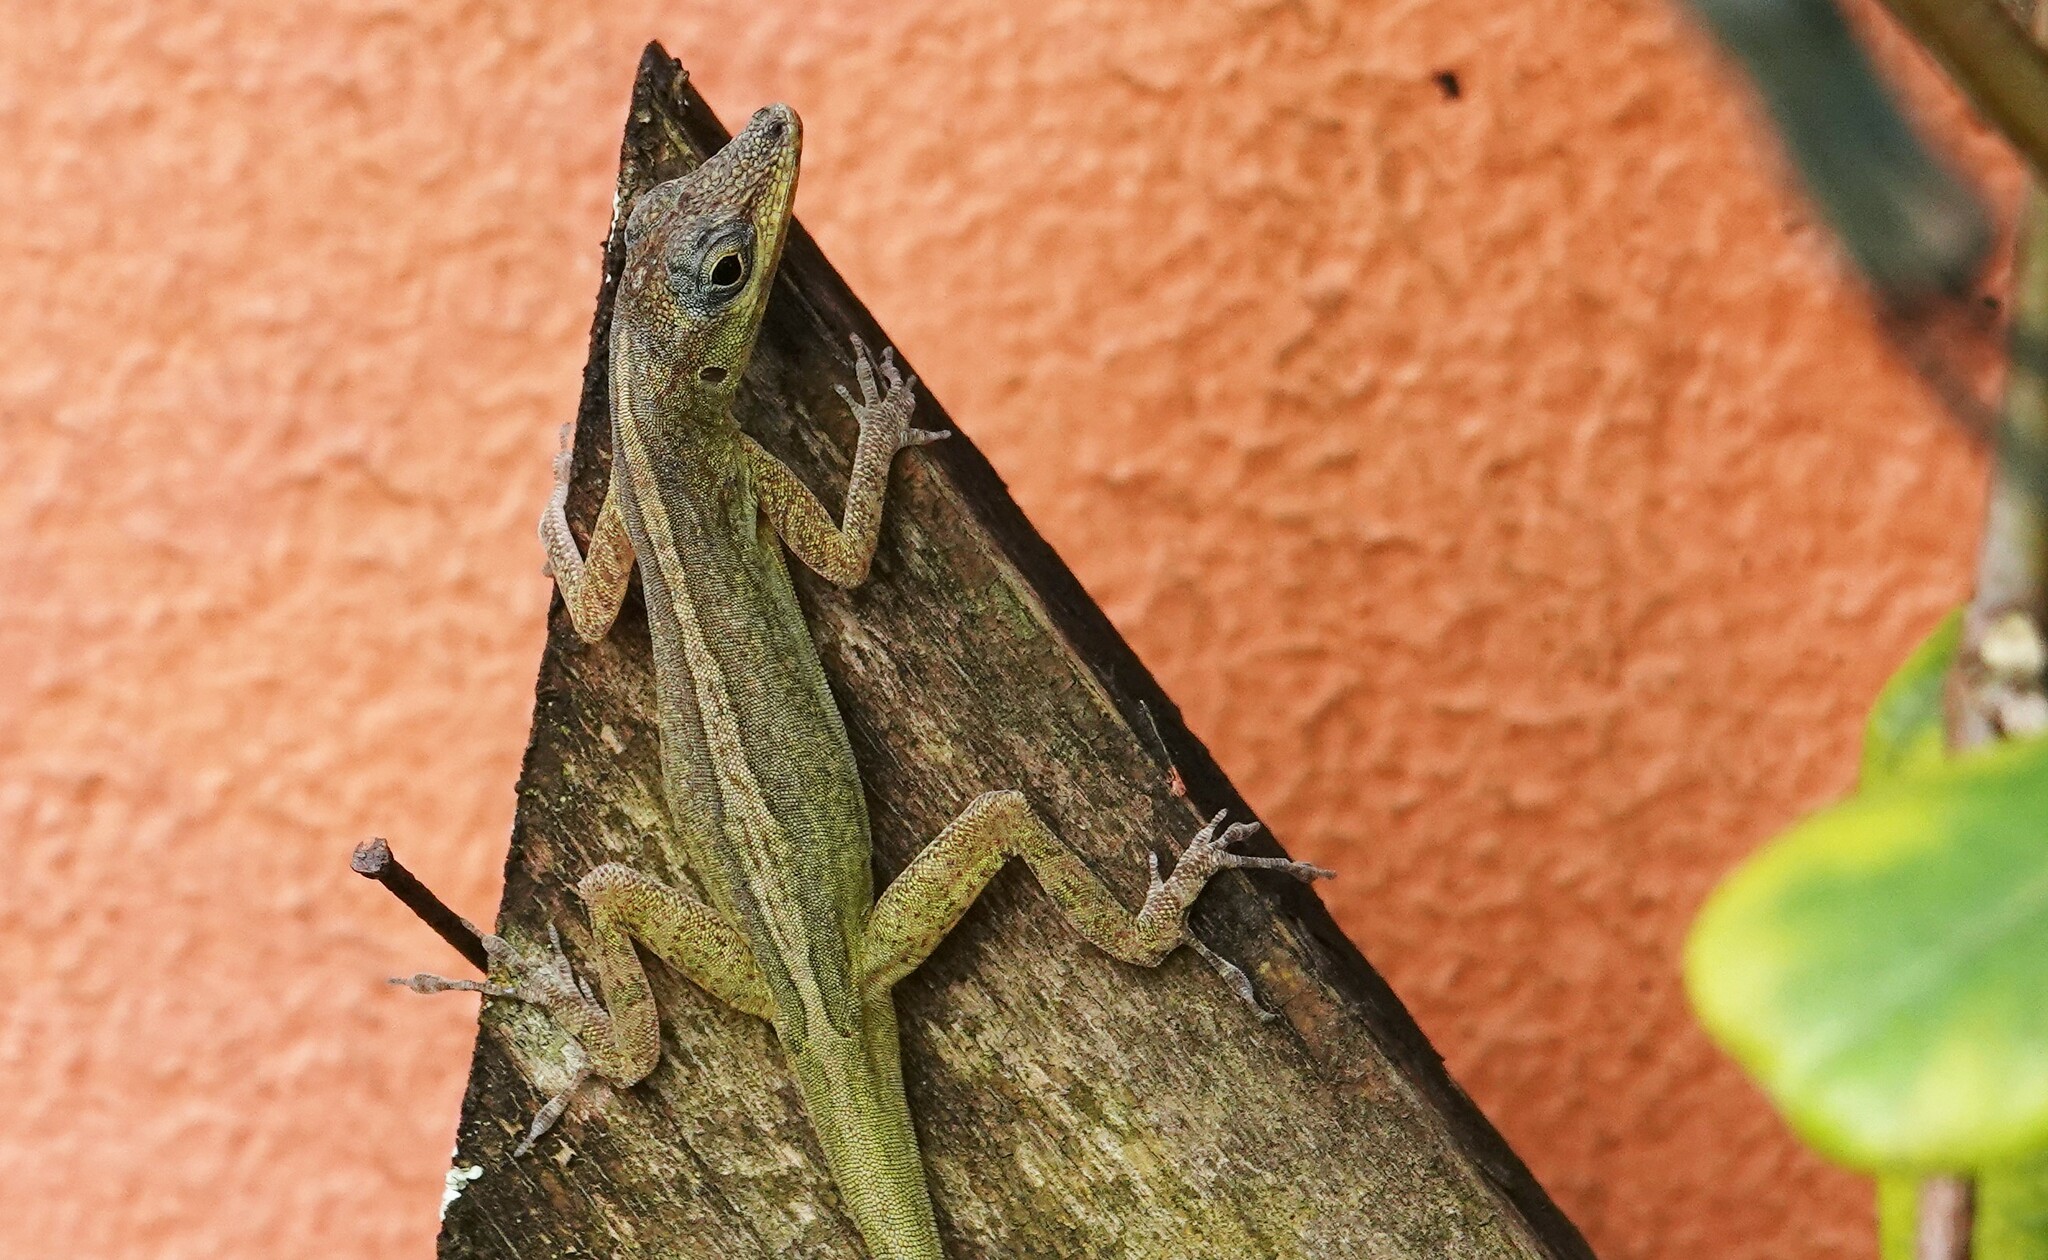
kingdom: Animalia
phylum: Chordata
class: Squamata
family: Dactyloidae
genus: Anolis
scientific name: Anolis aeneus
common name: Bronze anole
